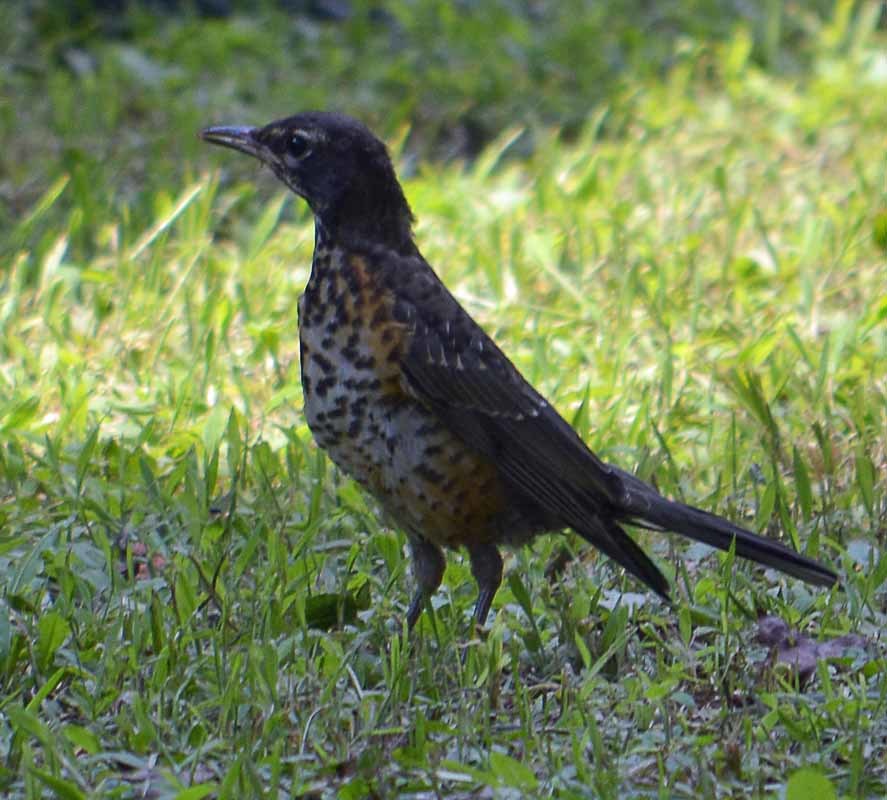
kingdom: Animalia
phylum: Chordata
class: Aves
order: Passeriformes
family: Turdidae
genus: Turdus
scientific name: Turdus migratorius
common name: American robin
